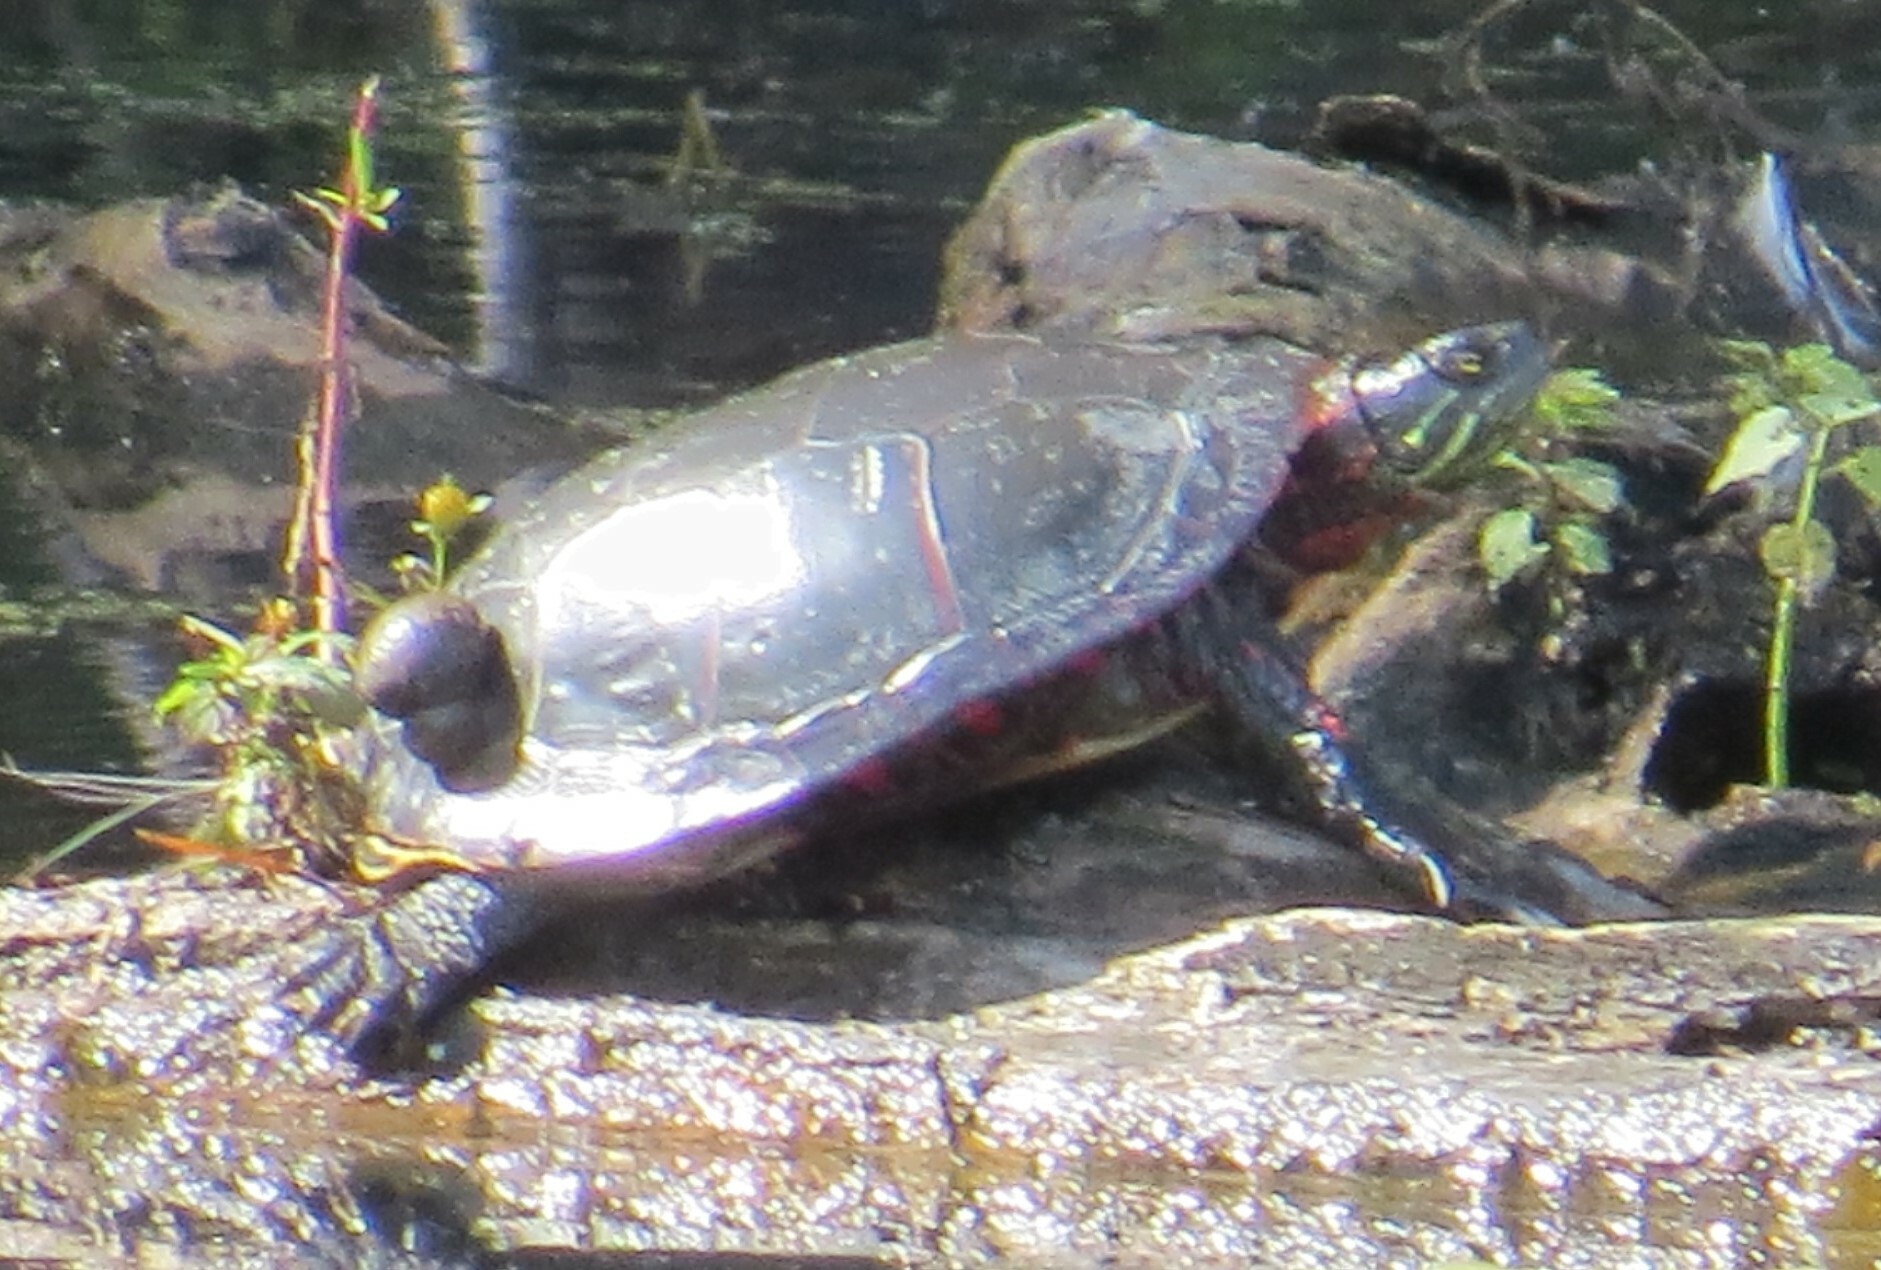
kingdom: Animalia
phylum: Chordata
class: Testudines
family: Emydidae
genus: Chrysemys
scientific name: Chrysemys picta
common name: Painted turtle
